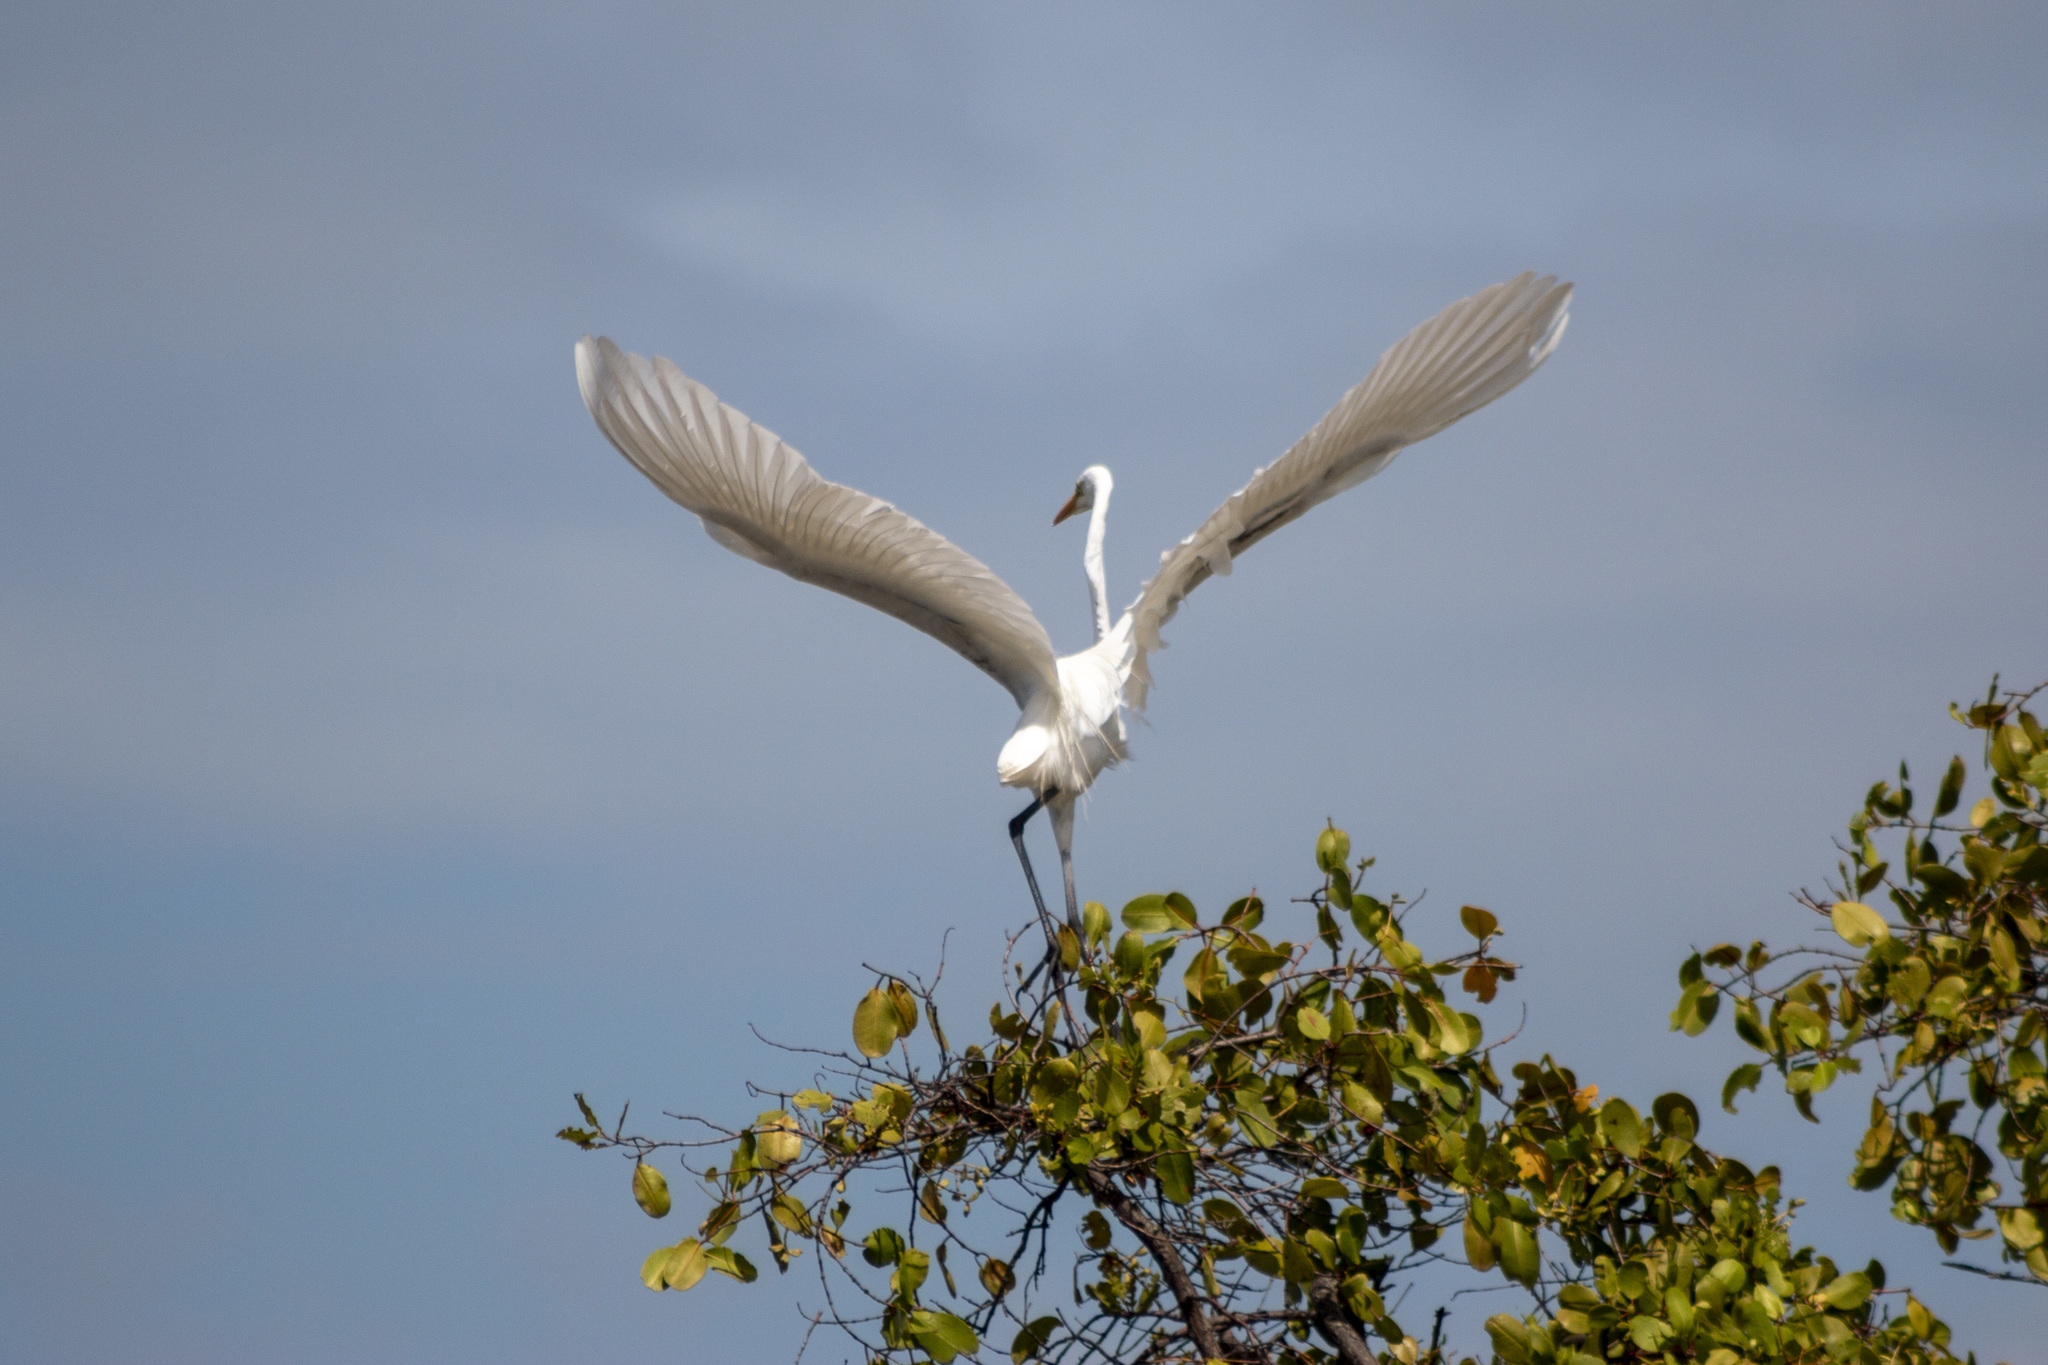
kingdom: Animalia
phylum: Chordata
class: Aves
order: Pelecaniformes
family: Ardeidae
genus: Ardea
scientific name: Ardea alba
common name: Great egret
